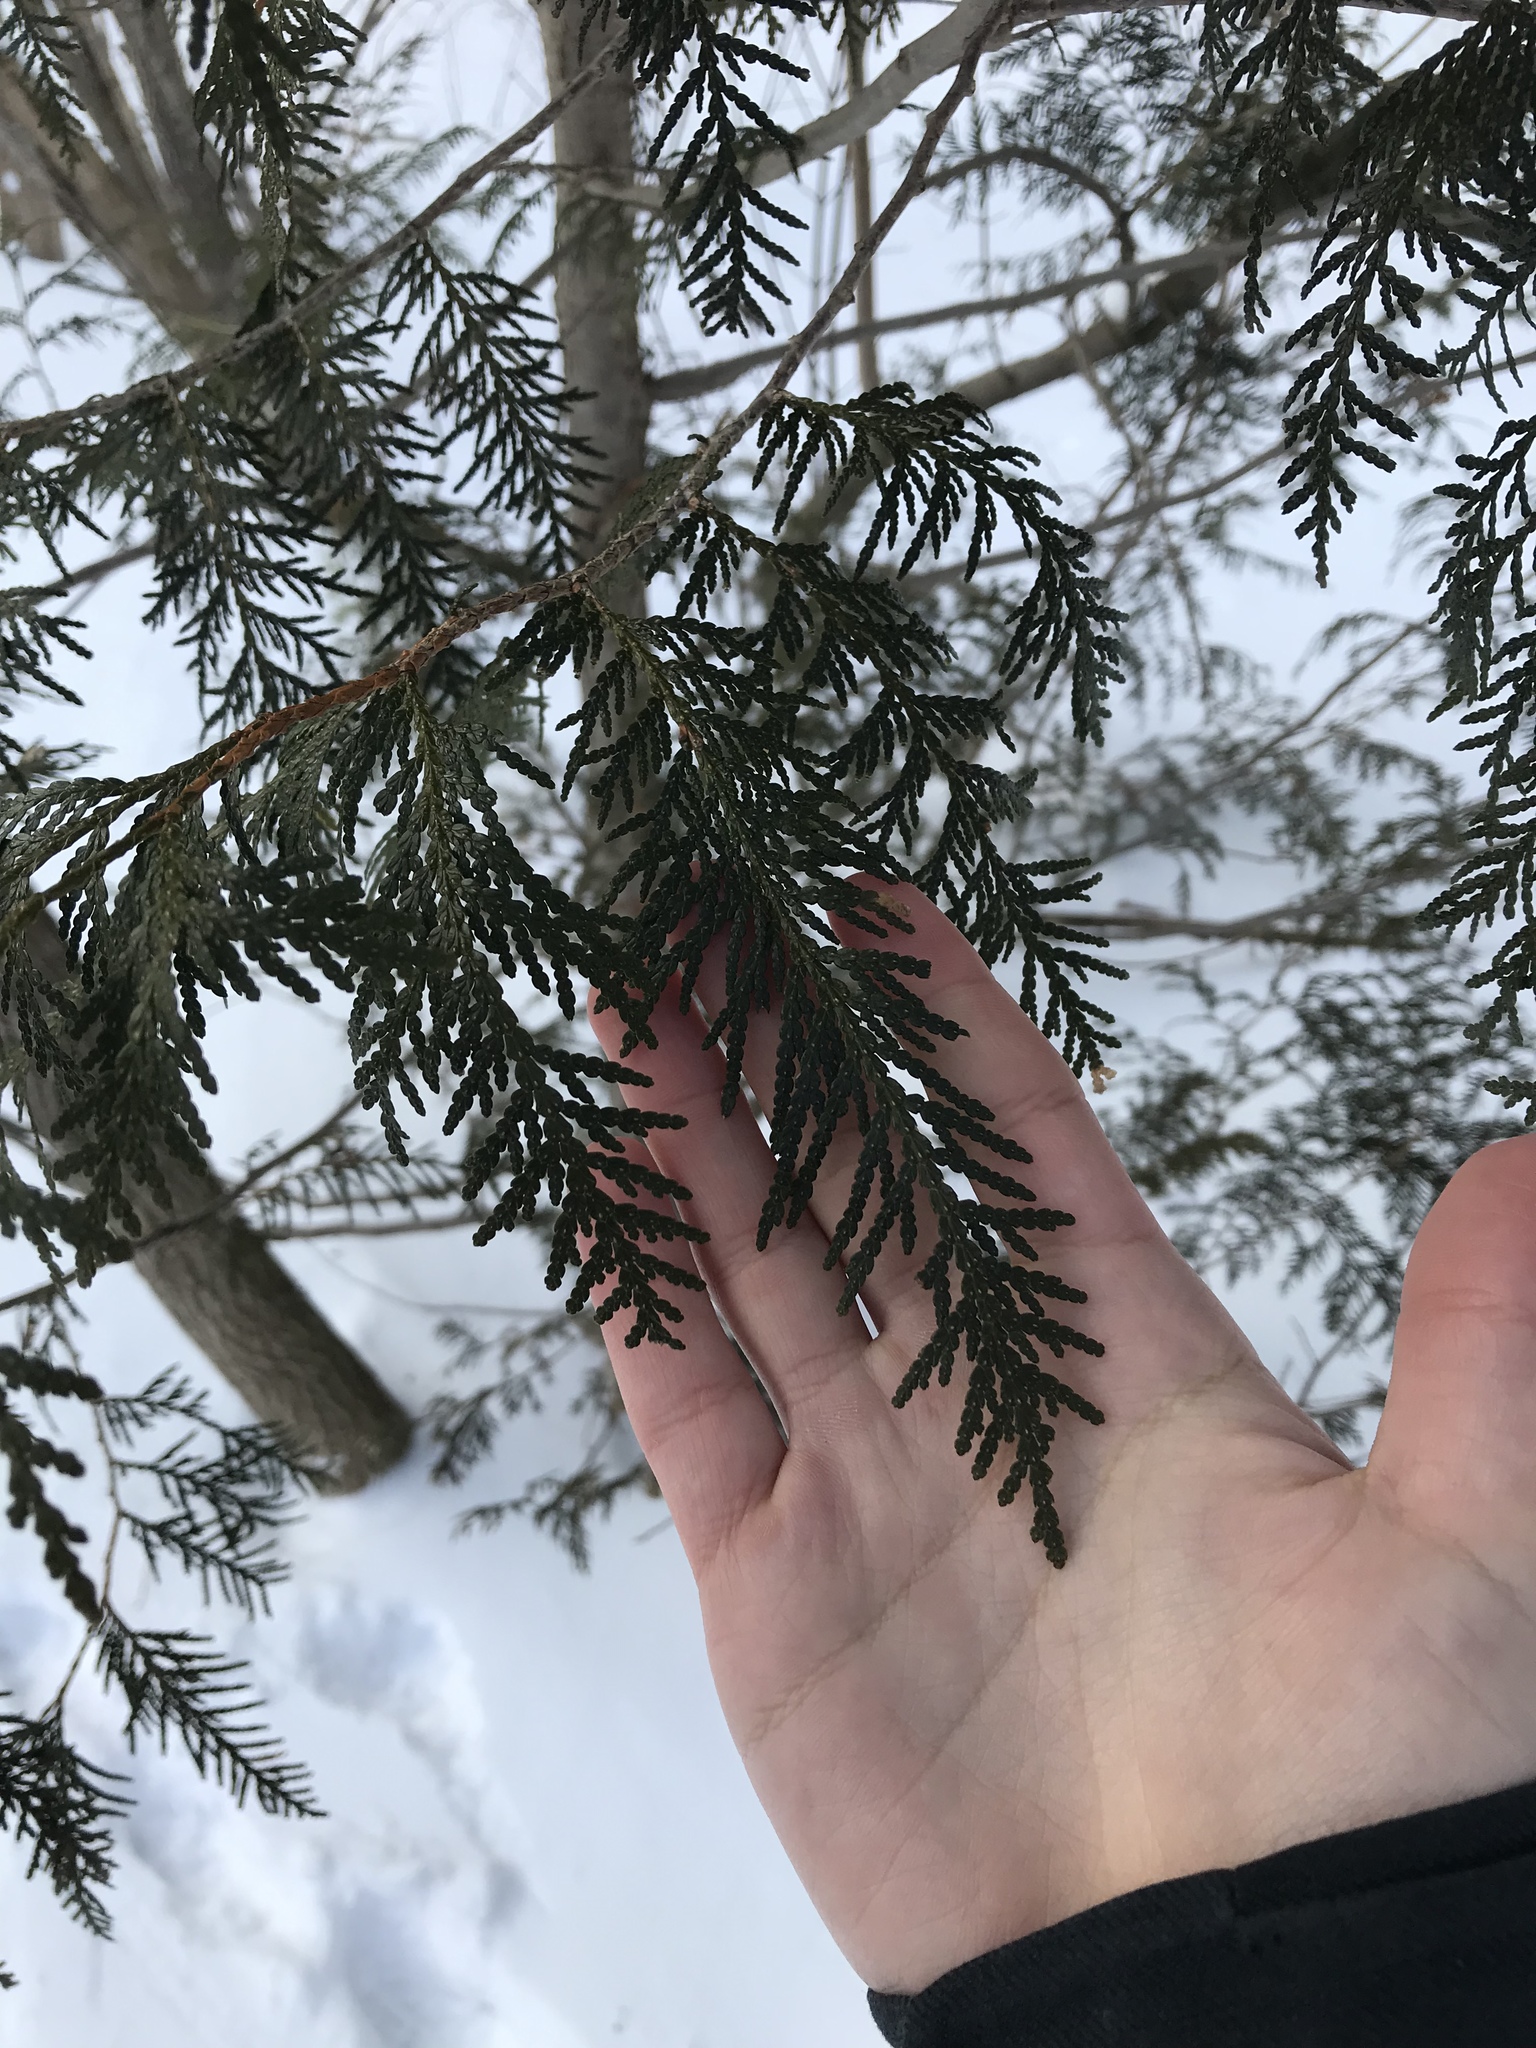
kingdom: Plantae
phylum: Tracheophyta
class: Pinopsida
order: Pinales
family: Cupressaceae
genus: Thuja
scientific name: Thuja occidentalis
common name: Northern white-cedar
